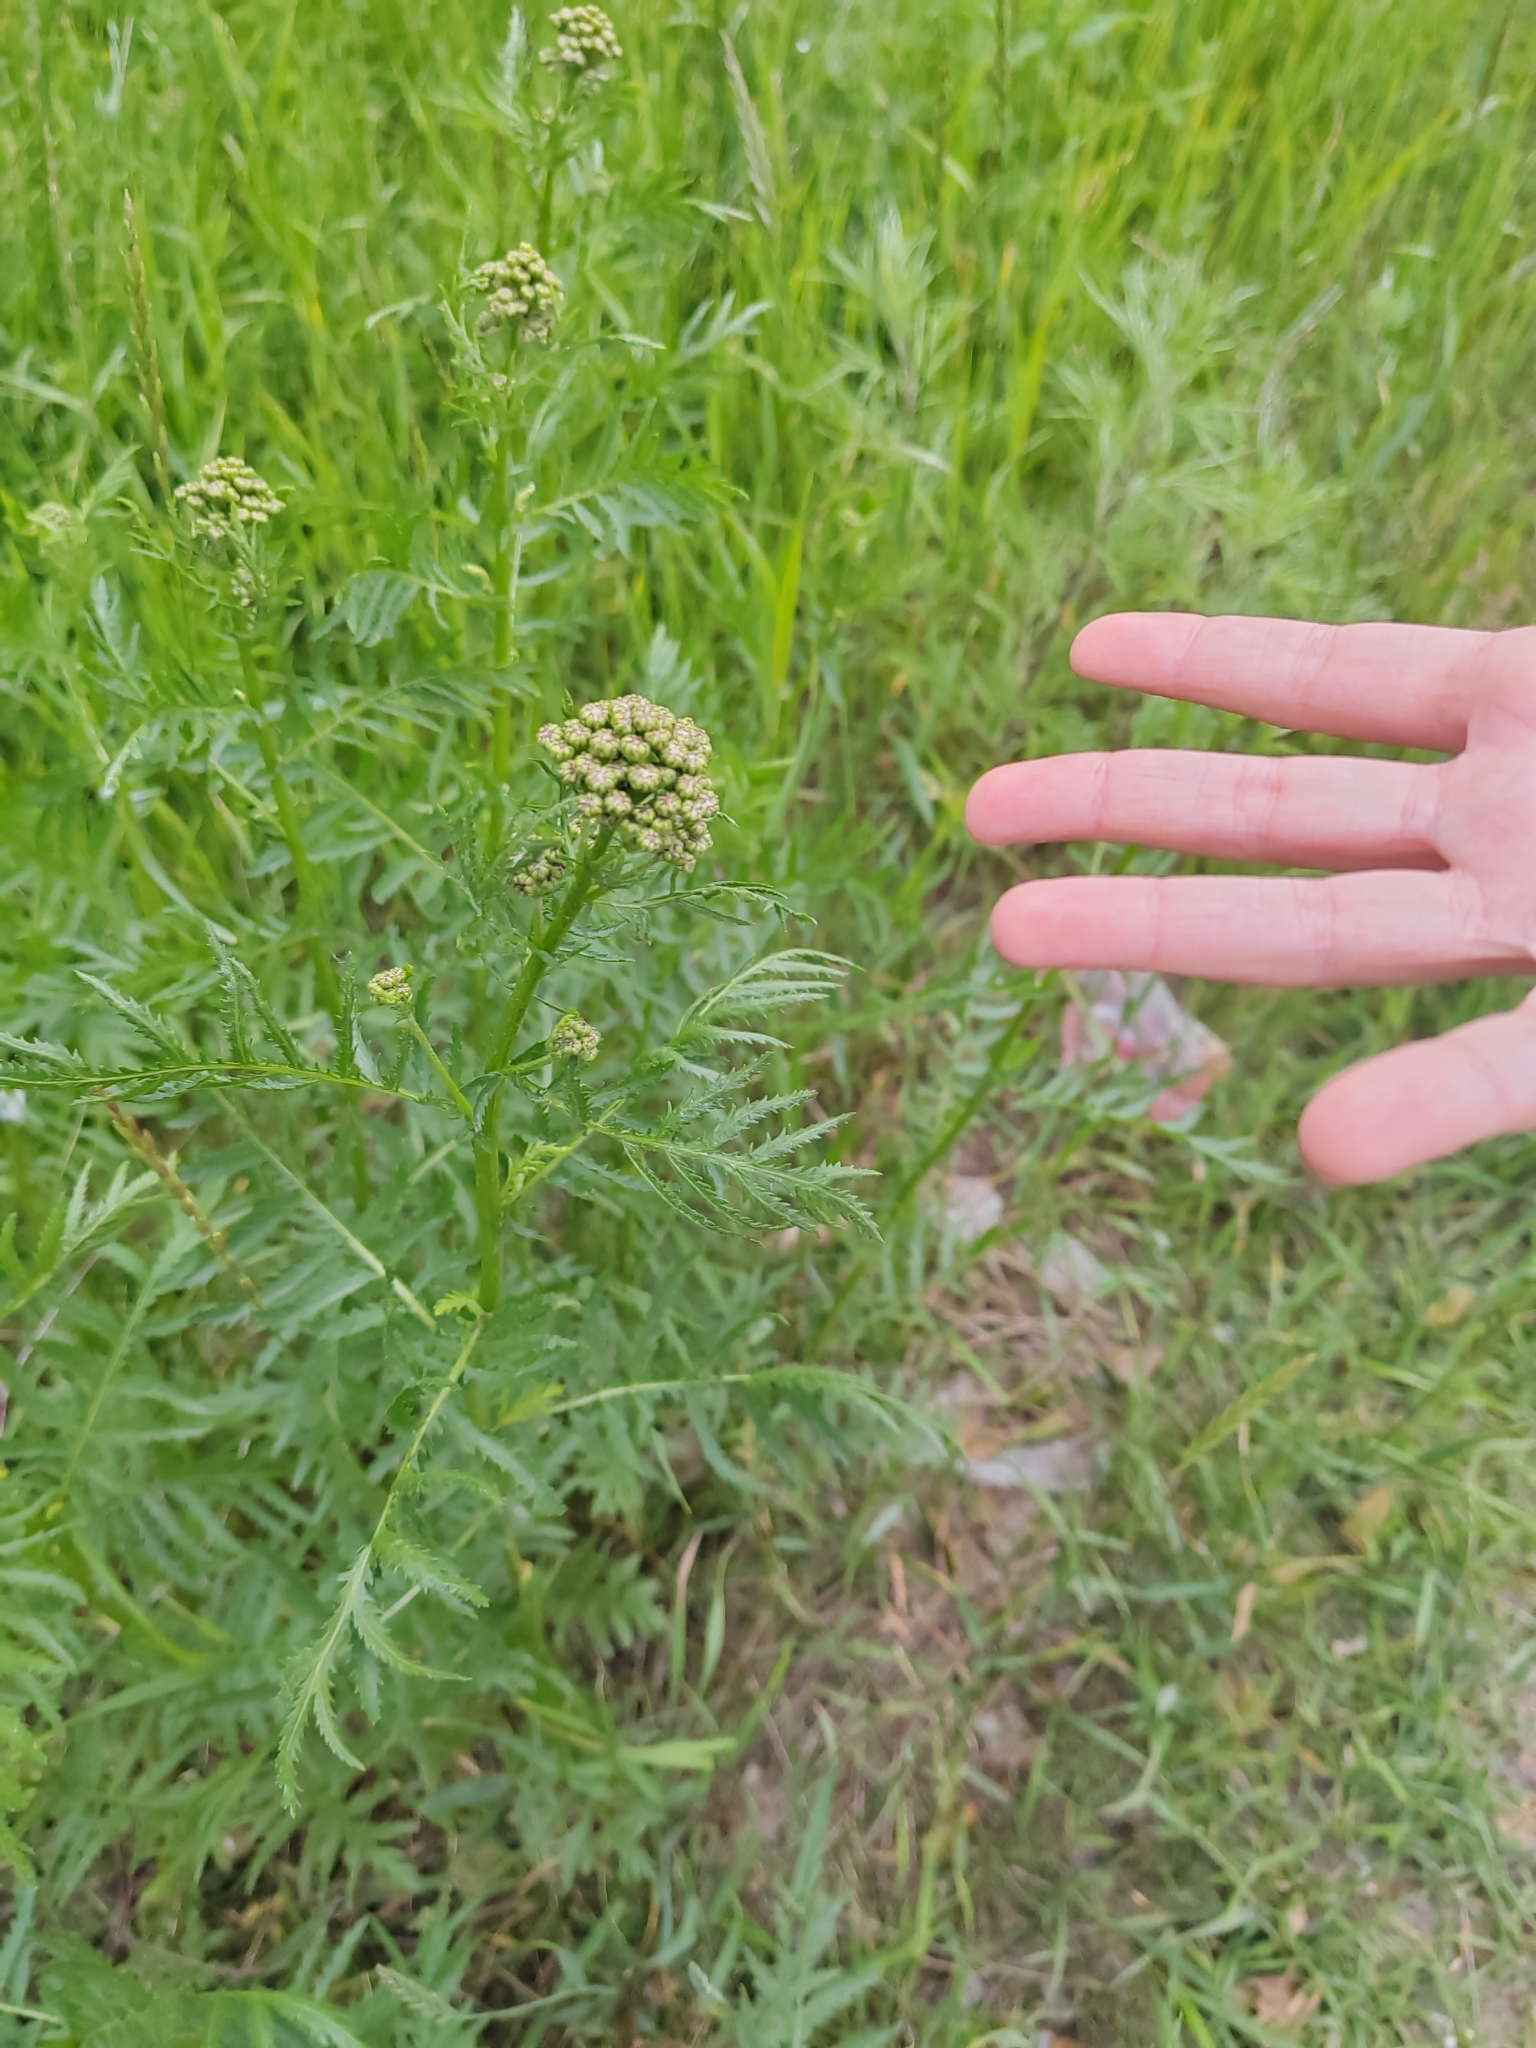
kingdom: Plantae
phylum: Tracheophyta
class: Magnoliopsida
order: Asterales
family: Asteraceae
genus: Tanacetum
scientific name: Tanacetum vulgare
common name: Common tansy
